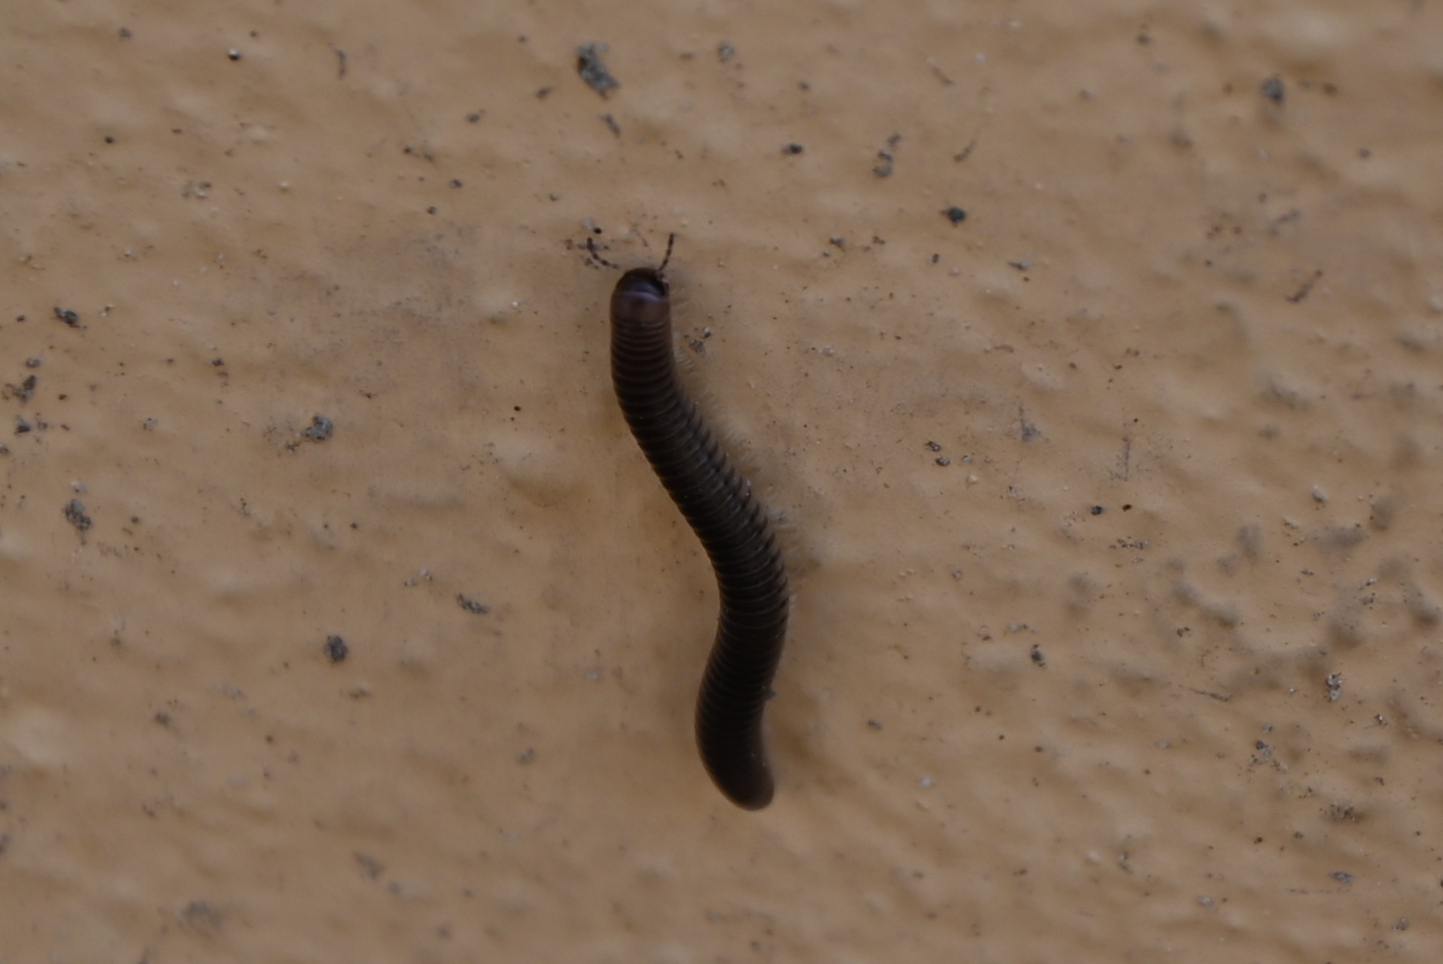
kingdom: Animalia
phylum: Arthropoda
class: Diplopoda
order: Julida
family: Julidae
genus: Pachyiulus
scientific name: Pachyiulus flavipes
